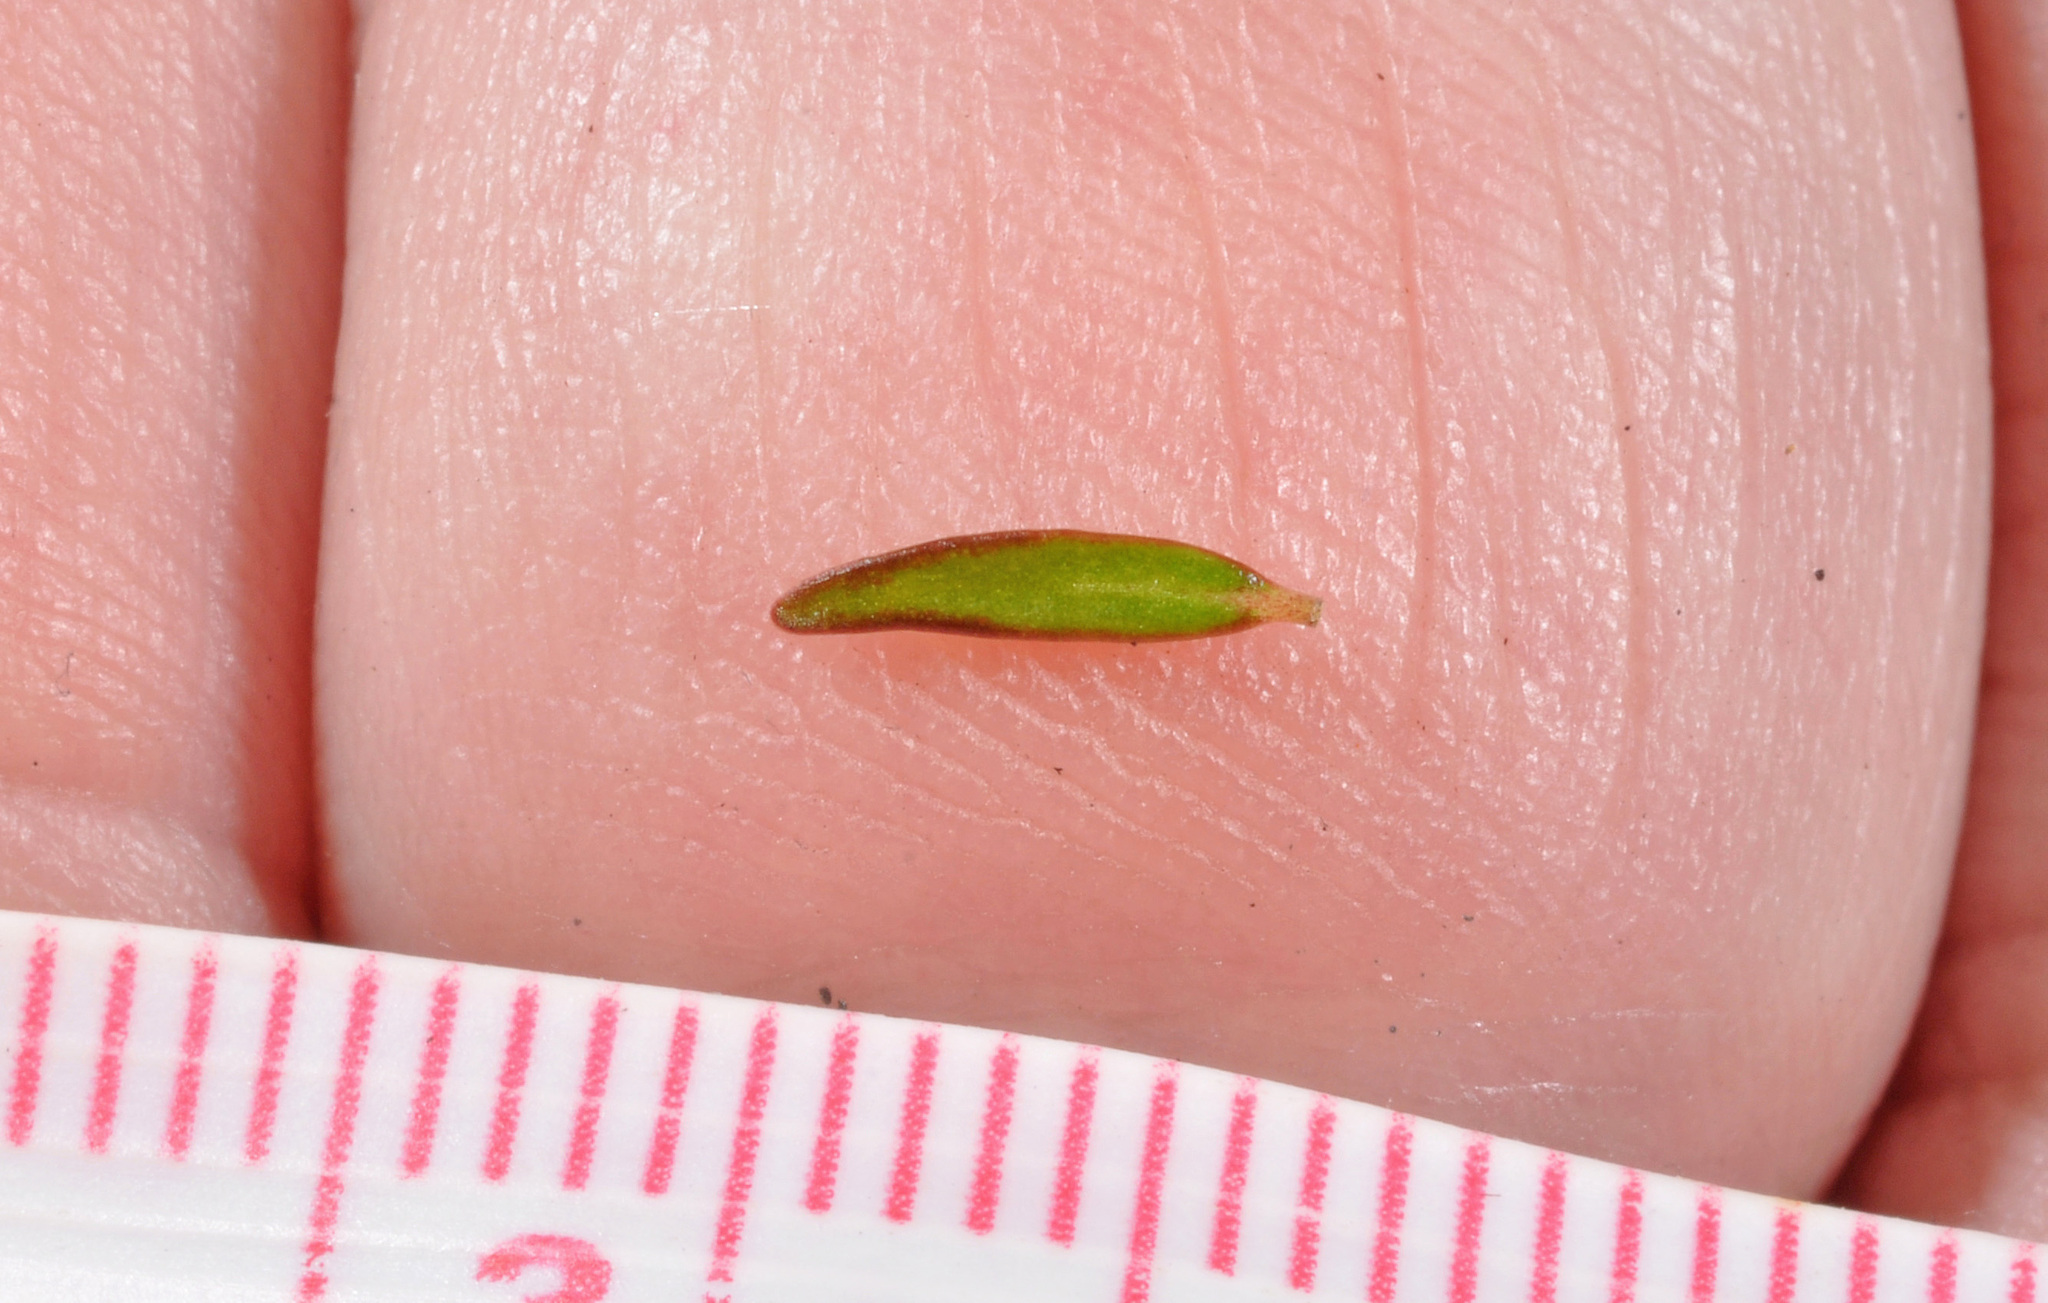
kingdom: Plantae
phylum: Tracheophyta
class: Magnoliopsida
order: Gentianales
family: Rubiaceae
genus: Coprosma
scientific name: Coprosma cheesemanii
